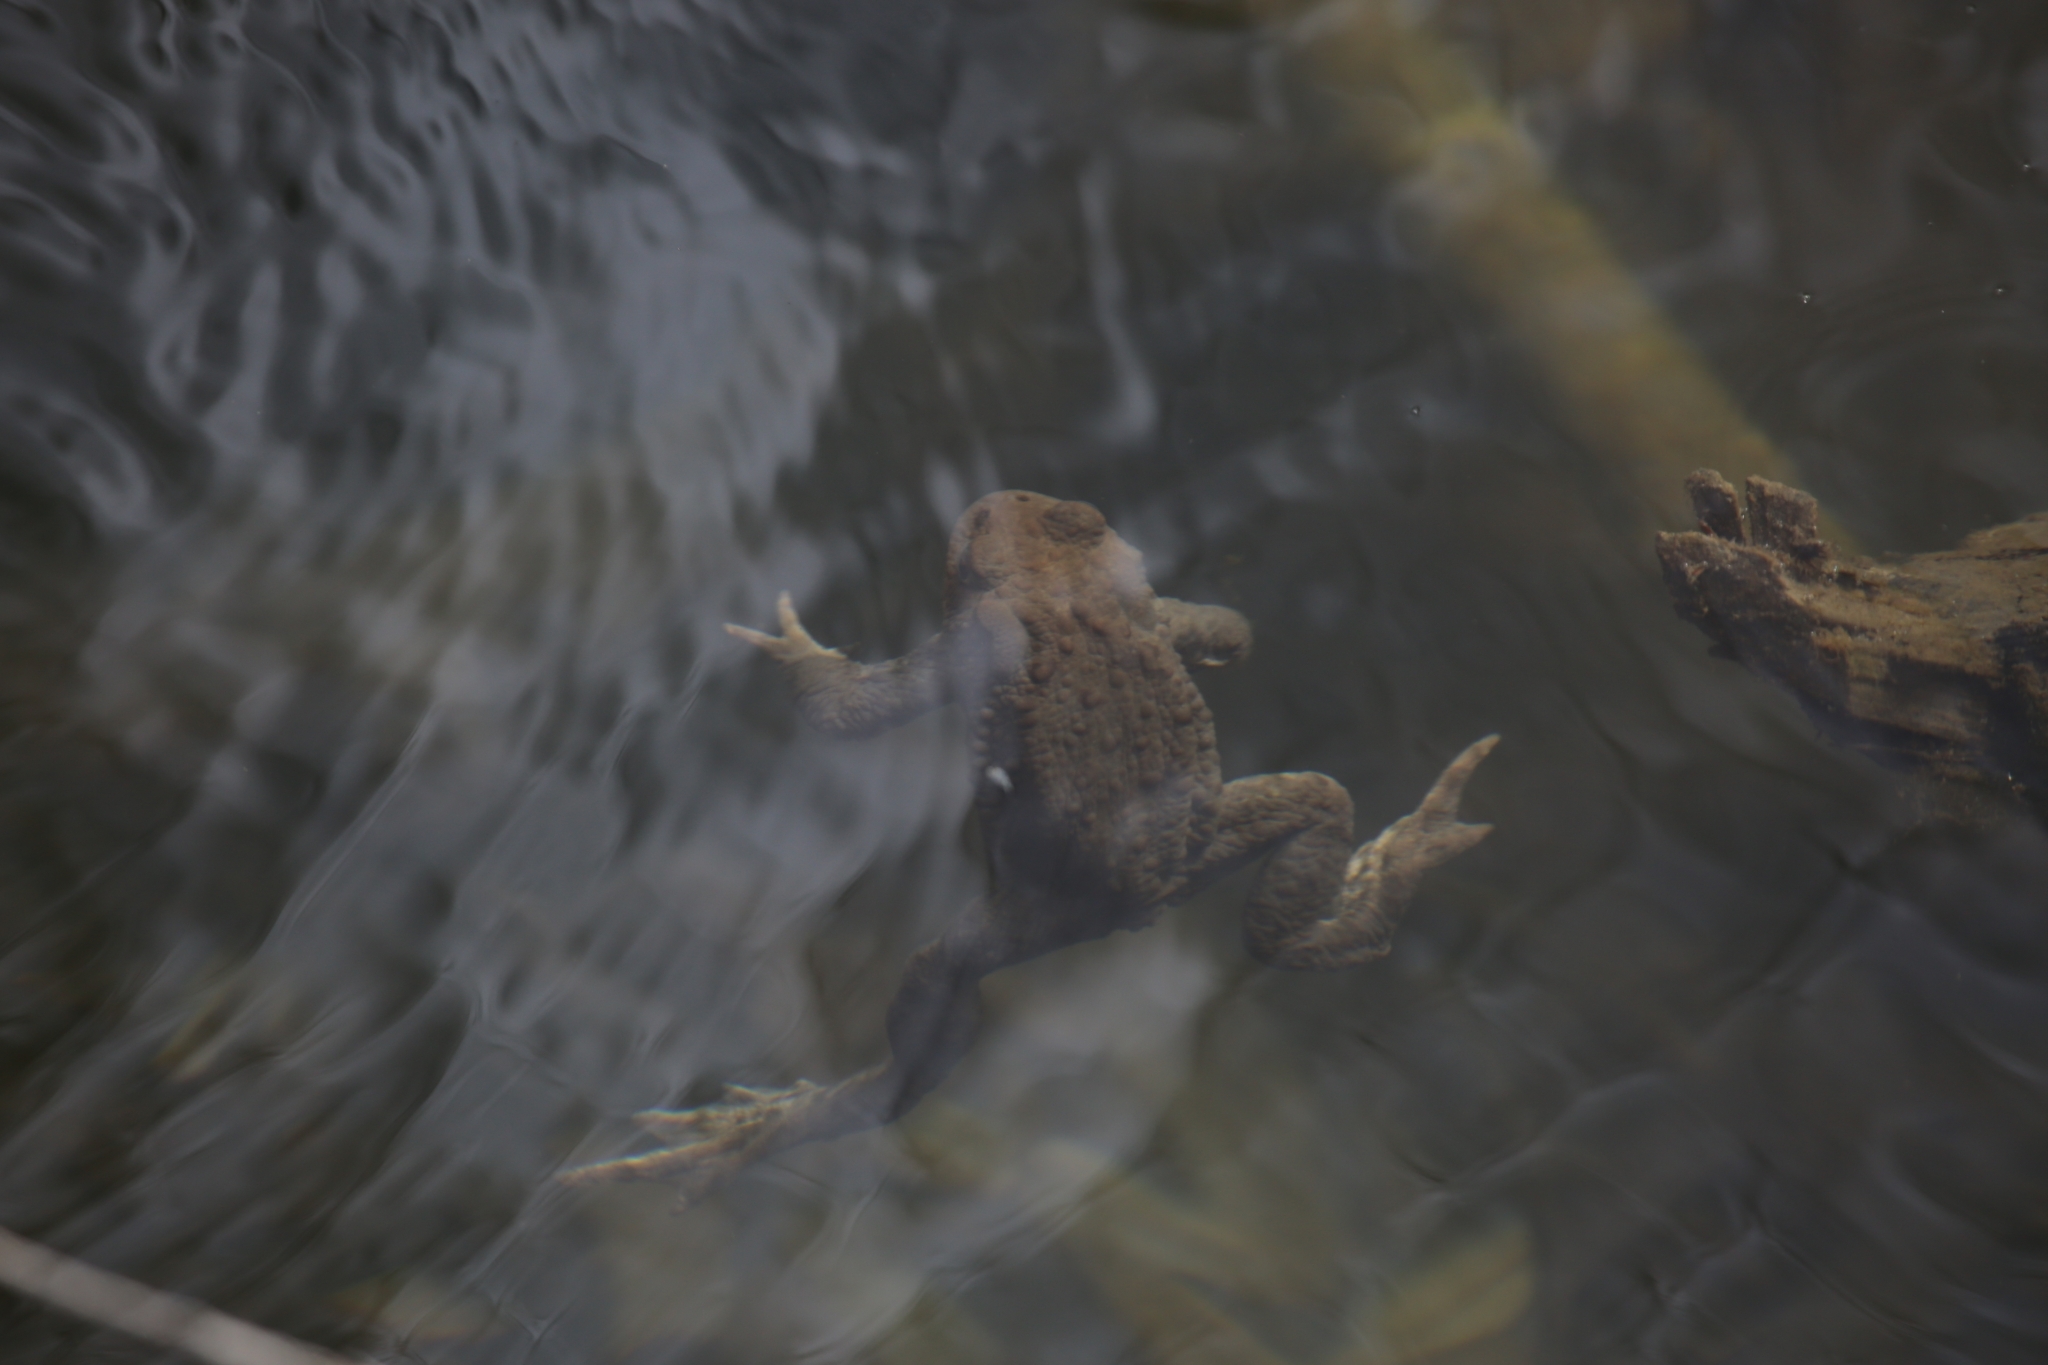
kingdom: Animalia
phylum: Chordata
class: Amphibia
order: Anura
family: Bufonidae
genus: Bufo
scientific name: Bufo bufo
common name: Common toad
